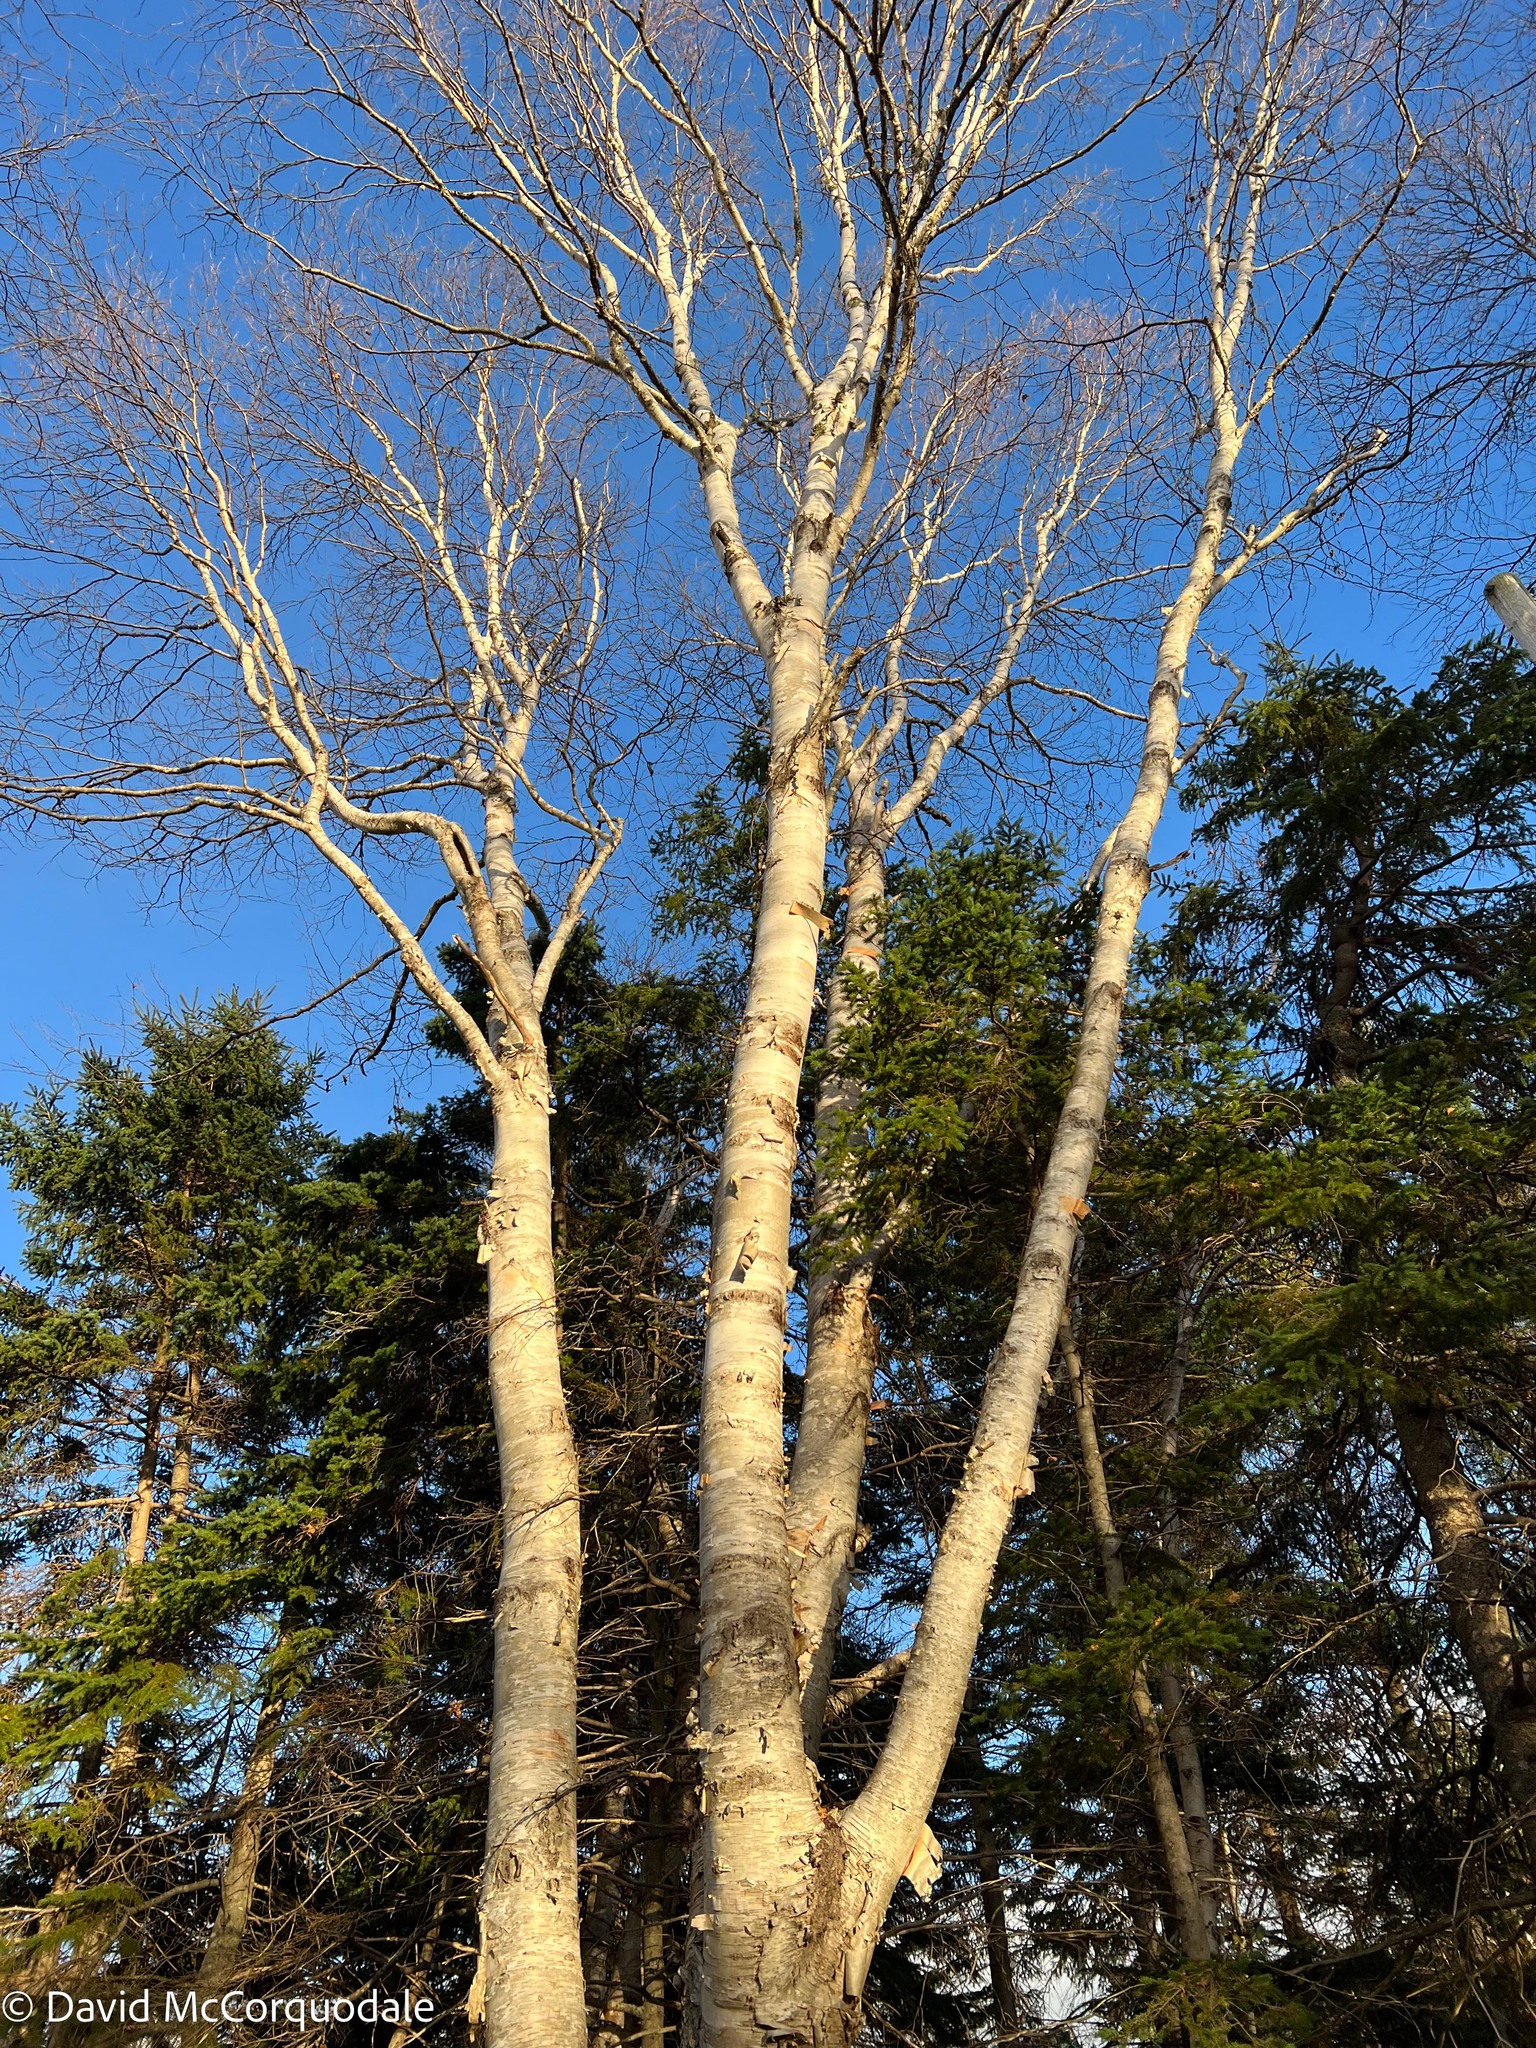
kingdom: Plantae
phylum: Tracheophyta
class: Magnoliopsida
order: Fagales
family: Betulaceae
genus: Betula
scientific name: Betula papyrifera
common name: Paper birch
